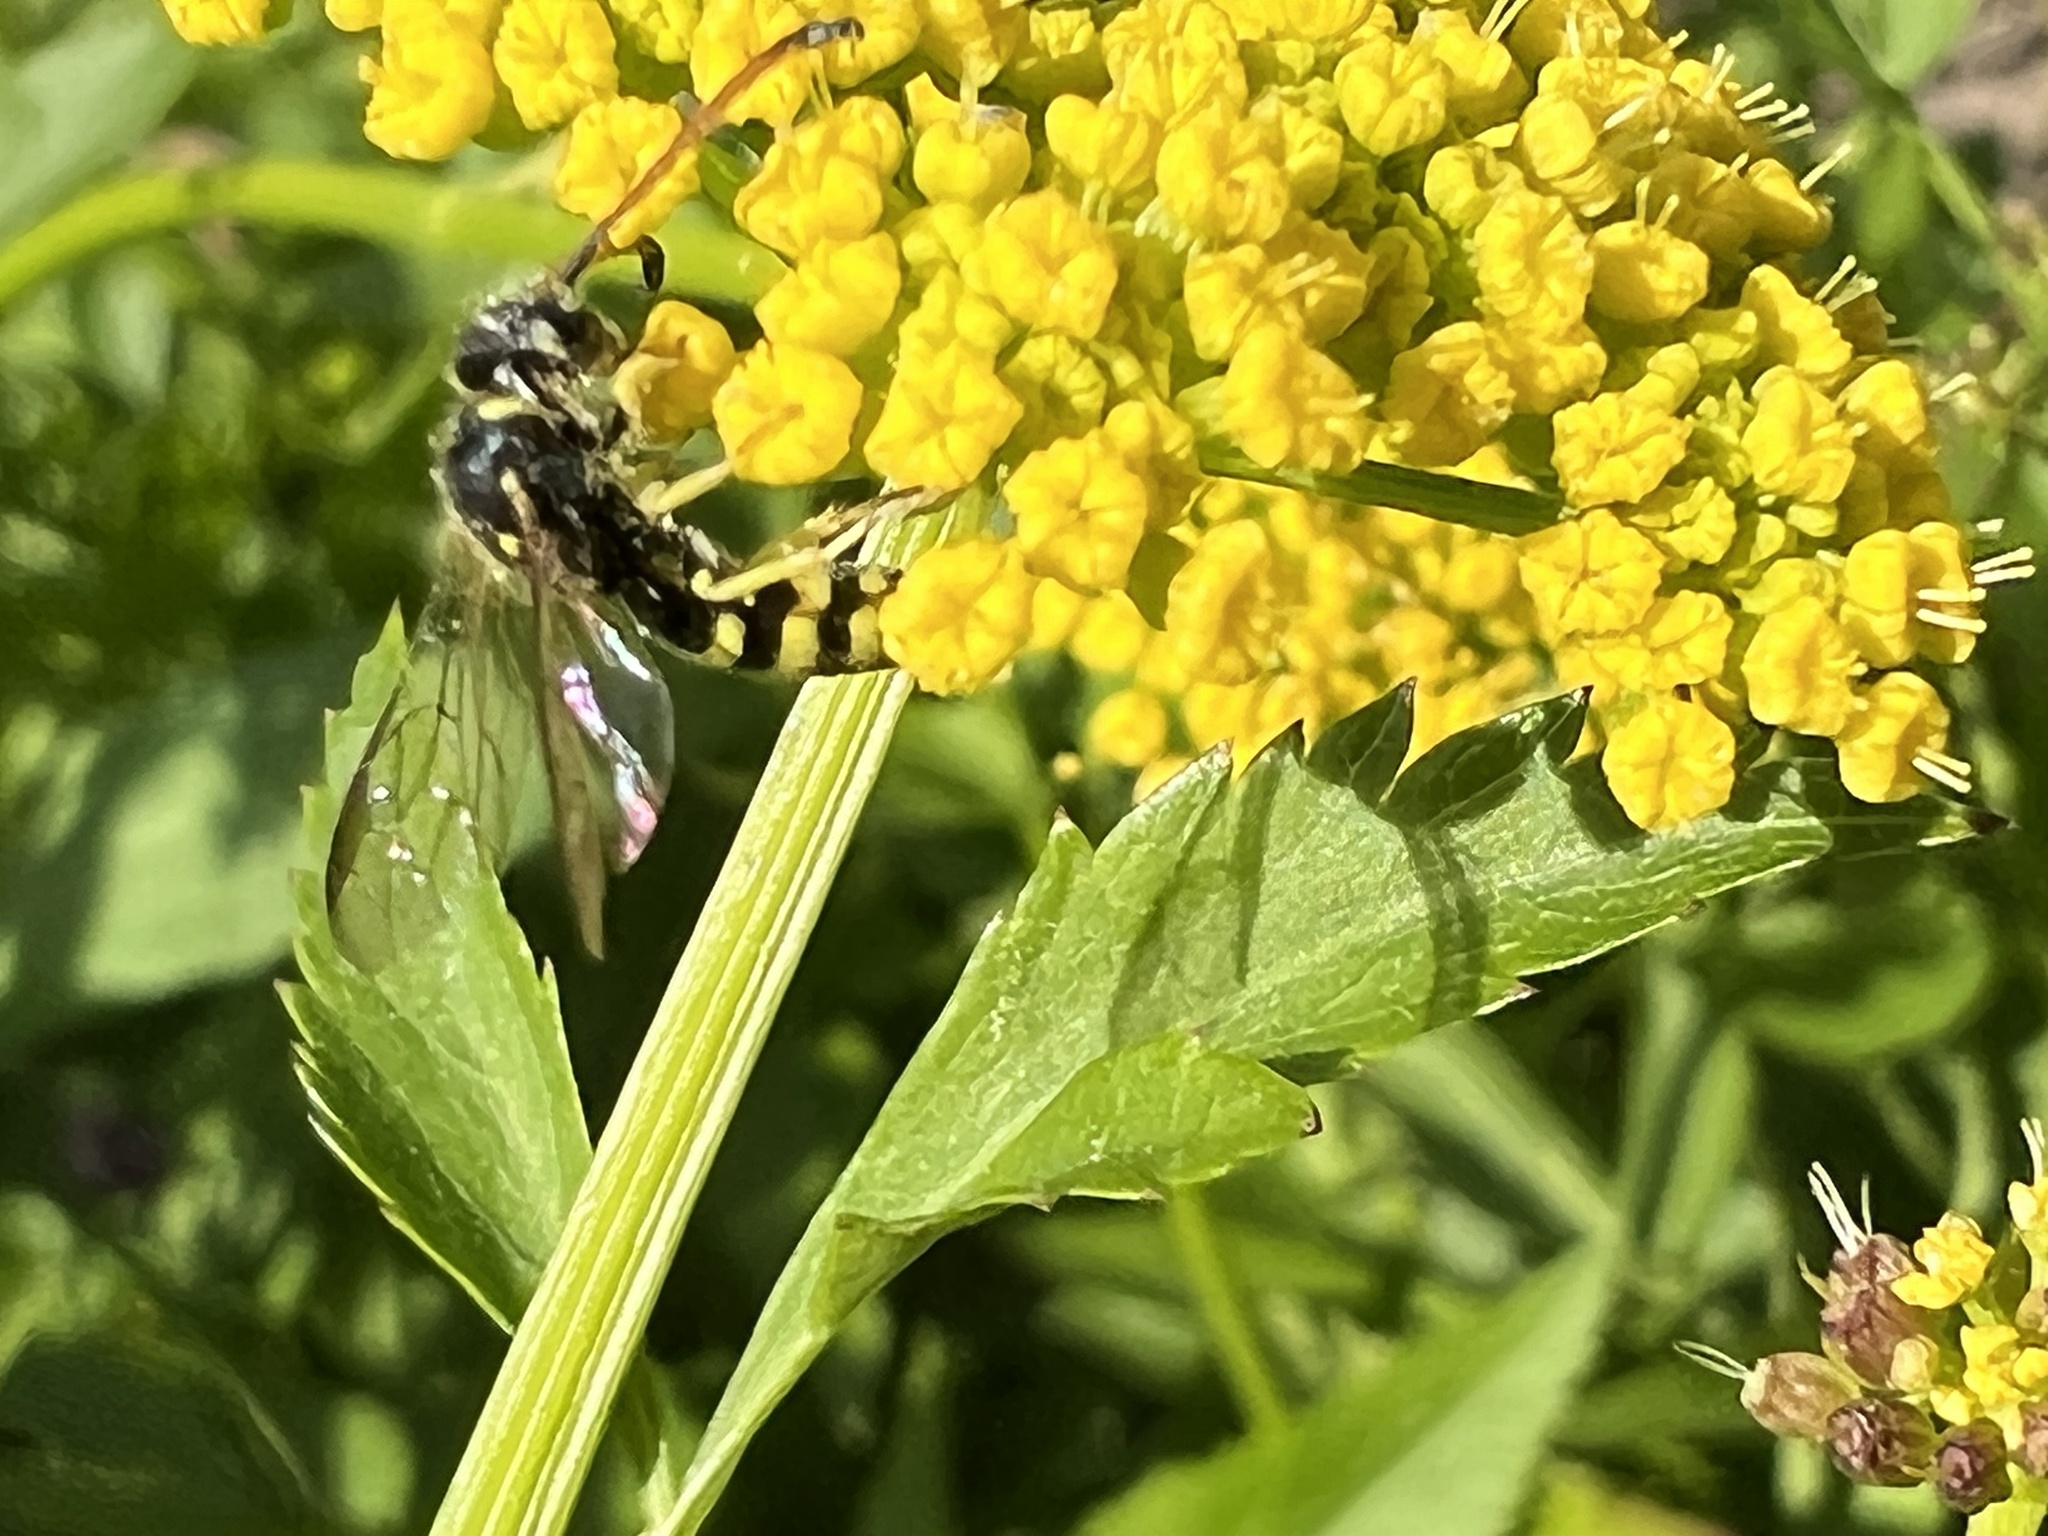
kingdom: Animalia
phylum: Arthropoda
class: Insecta
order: Hymenoptera
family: Sapygidae
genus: Sapyga
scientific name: Sapyga centrata
